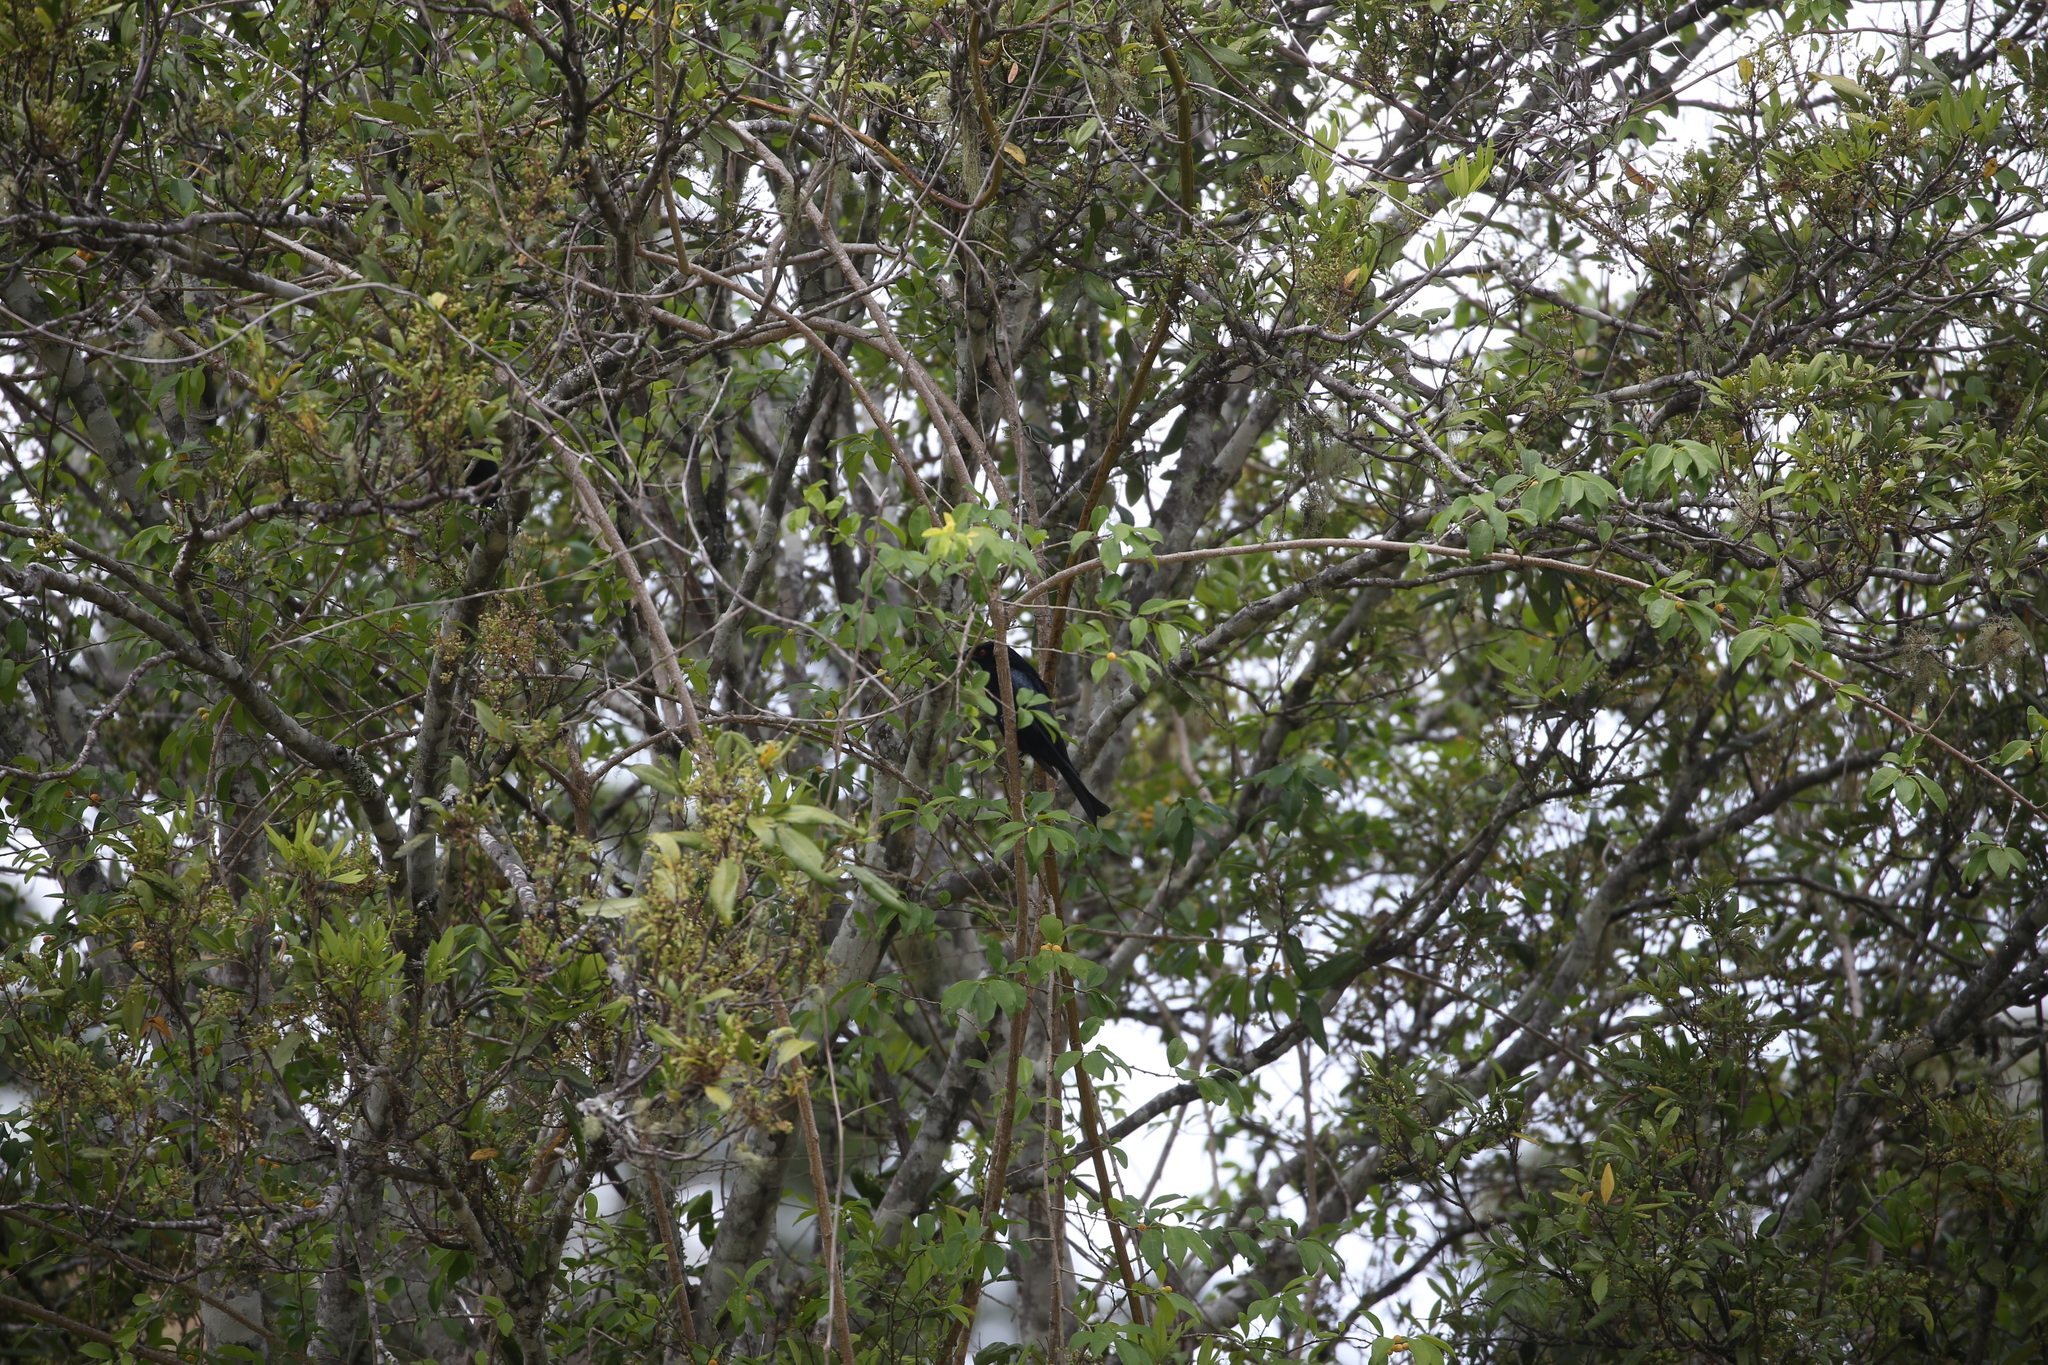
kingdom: Animalia
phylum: Chordata
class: Aves
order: Passeriformes
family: Dicruridae
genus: Dicrurus
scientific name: Dicrurus bracteatus
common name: Spangled drongo
